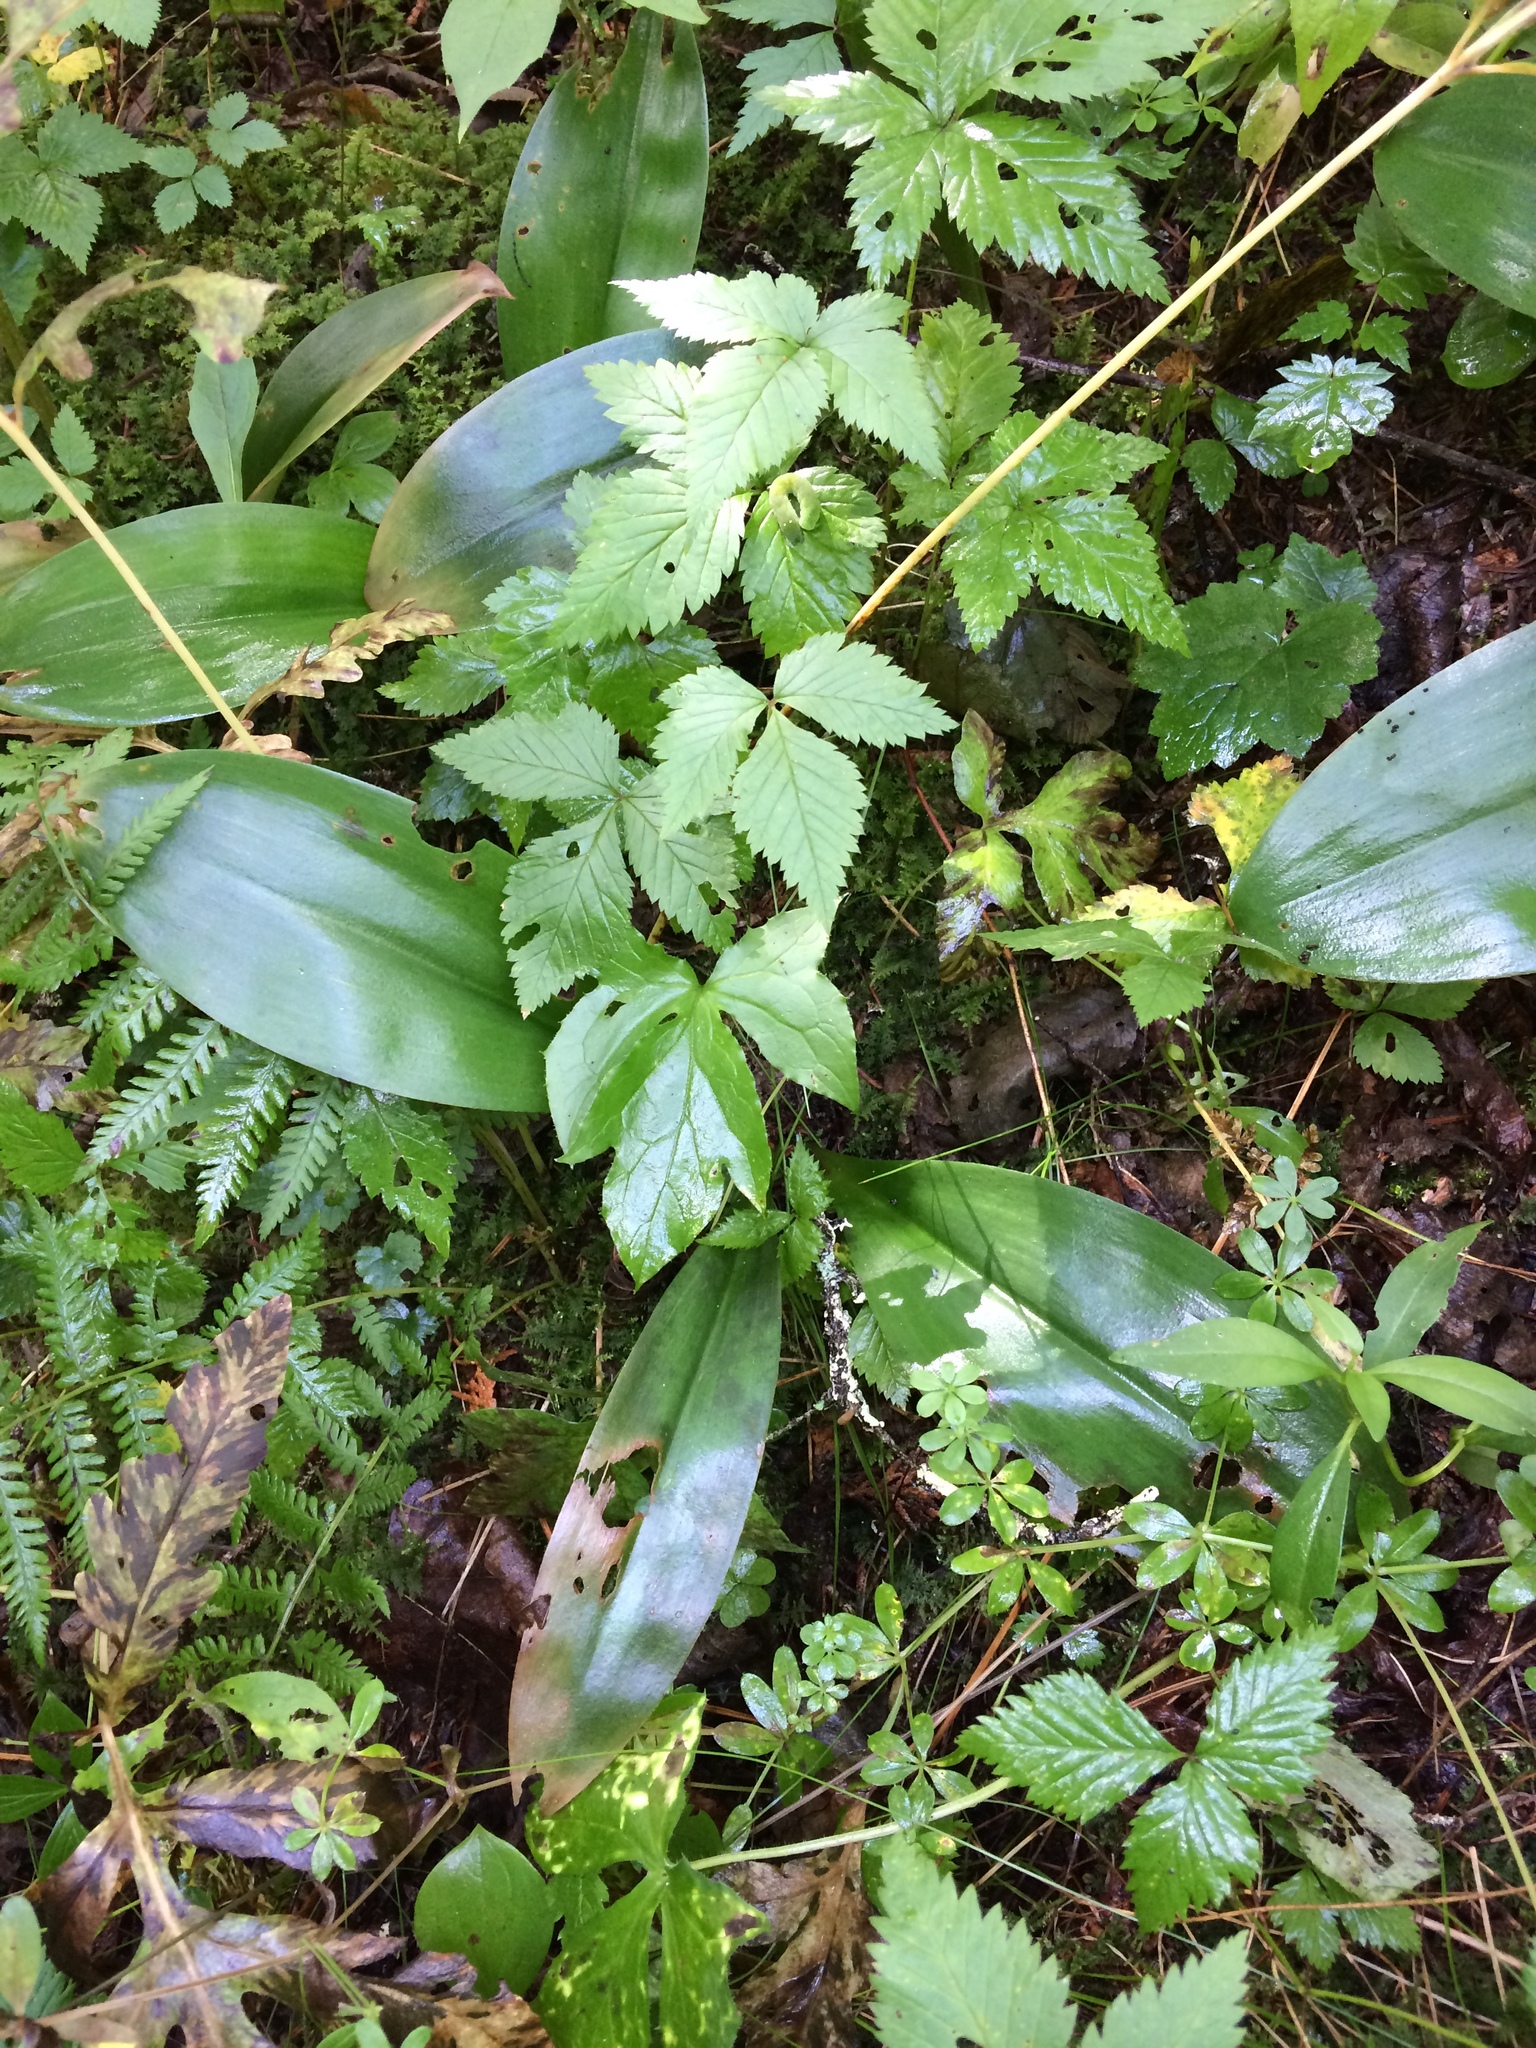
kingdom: Plantae
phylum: Tracheophyta
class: Liliopsida
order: Liliales
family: Liliaceae
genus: Clintonia
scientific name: Clintonia borealis
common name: Yellow clintonia
